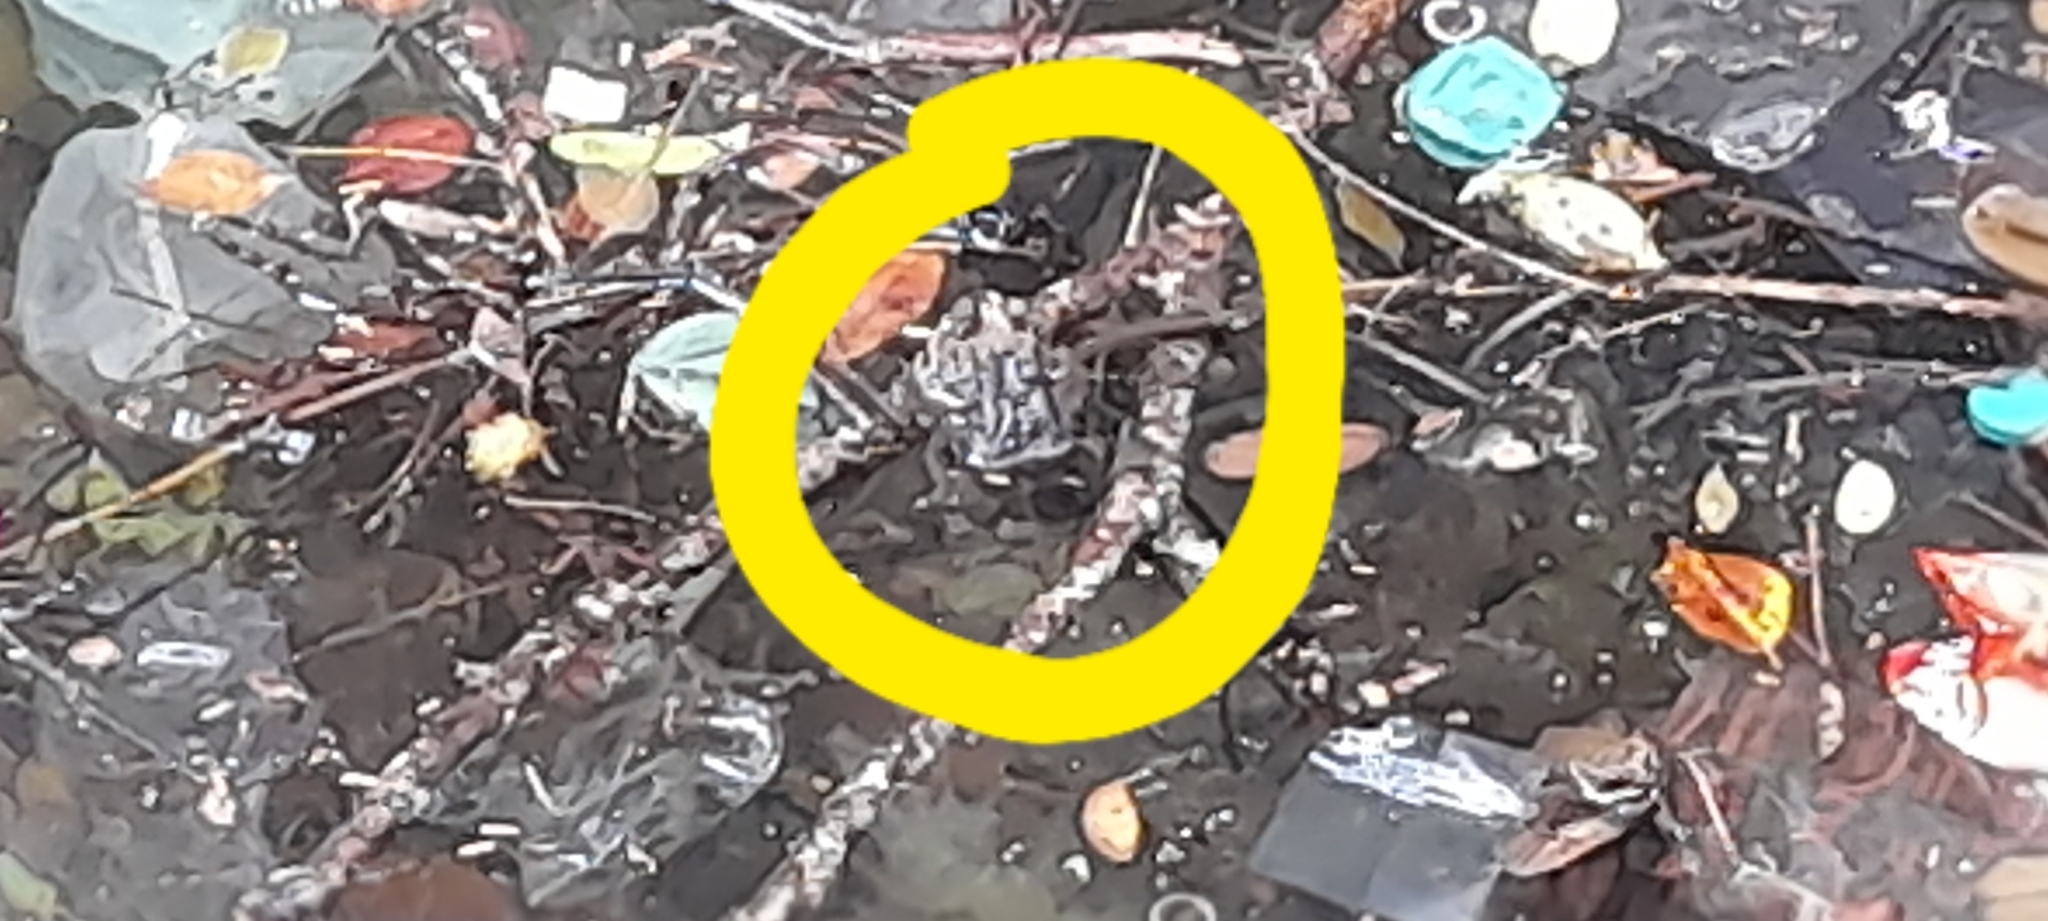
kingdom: Animalia
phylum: Chordata
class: Amphibia
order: Anura
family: Bufonidae
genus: Duttaphrynus
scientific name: Duttaphrynus melanostictus
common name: Common sunda toad
